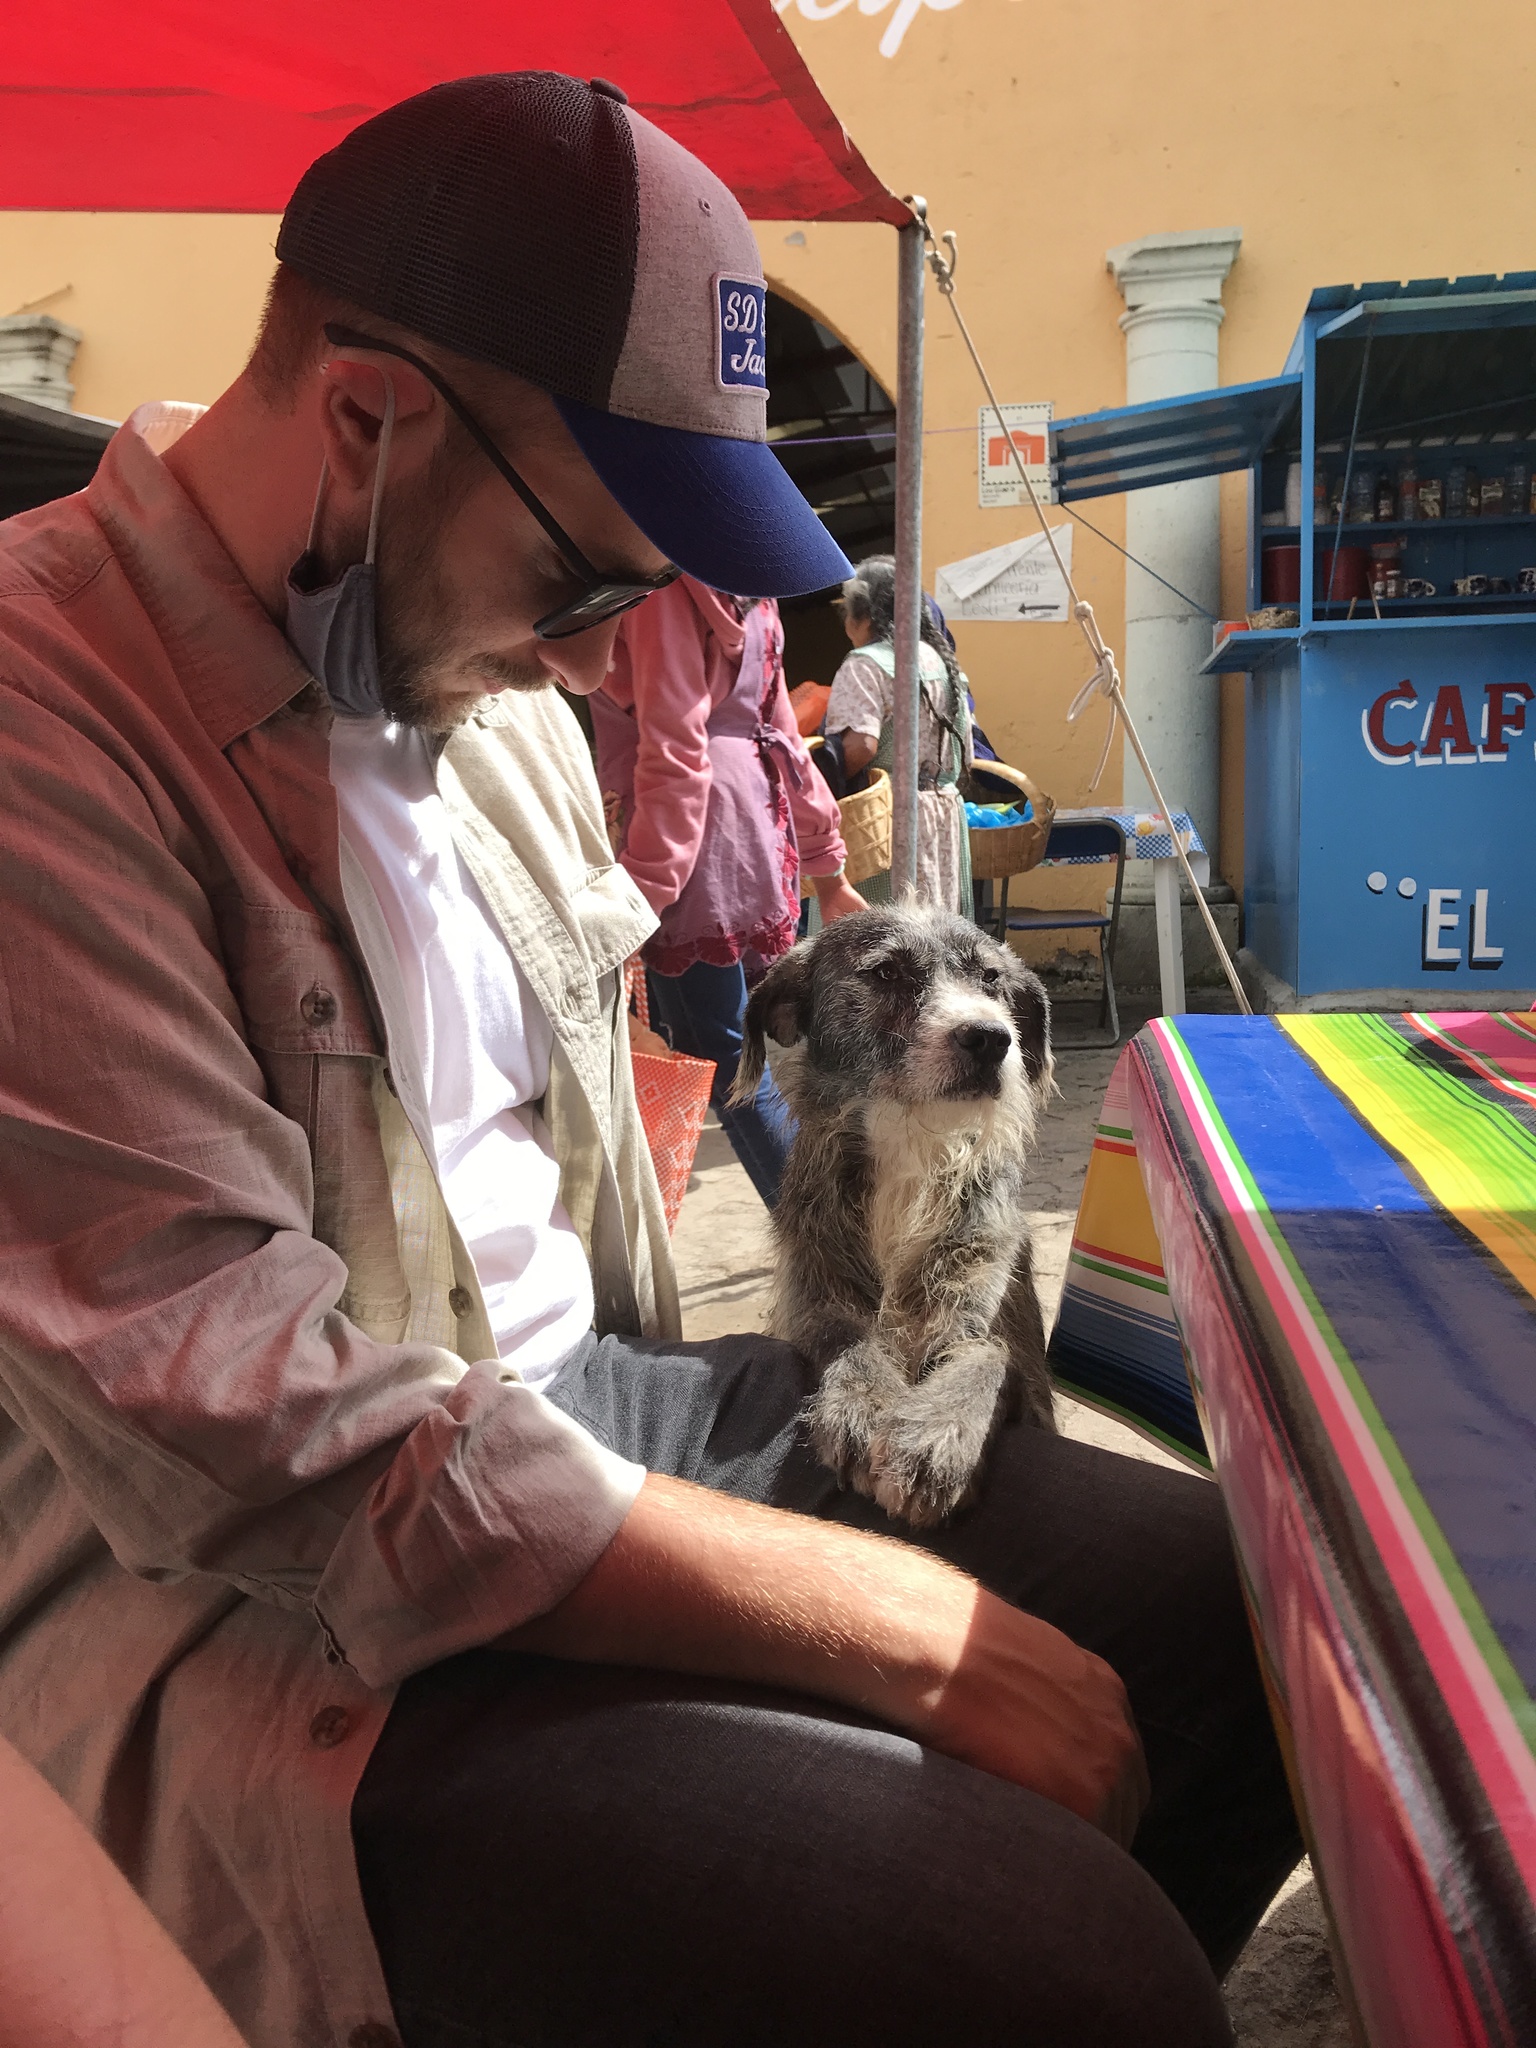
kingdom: Animalia
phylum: Chordata
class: Mammalia
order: Carnivora
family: Canidae
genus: Canis
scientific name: Canis lupus
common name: Gray wolf
